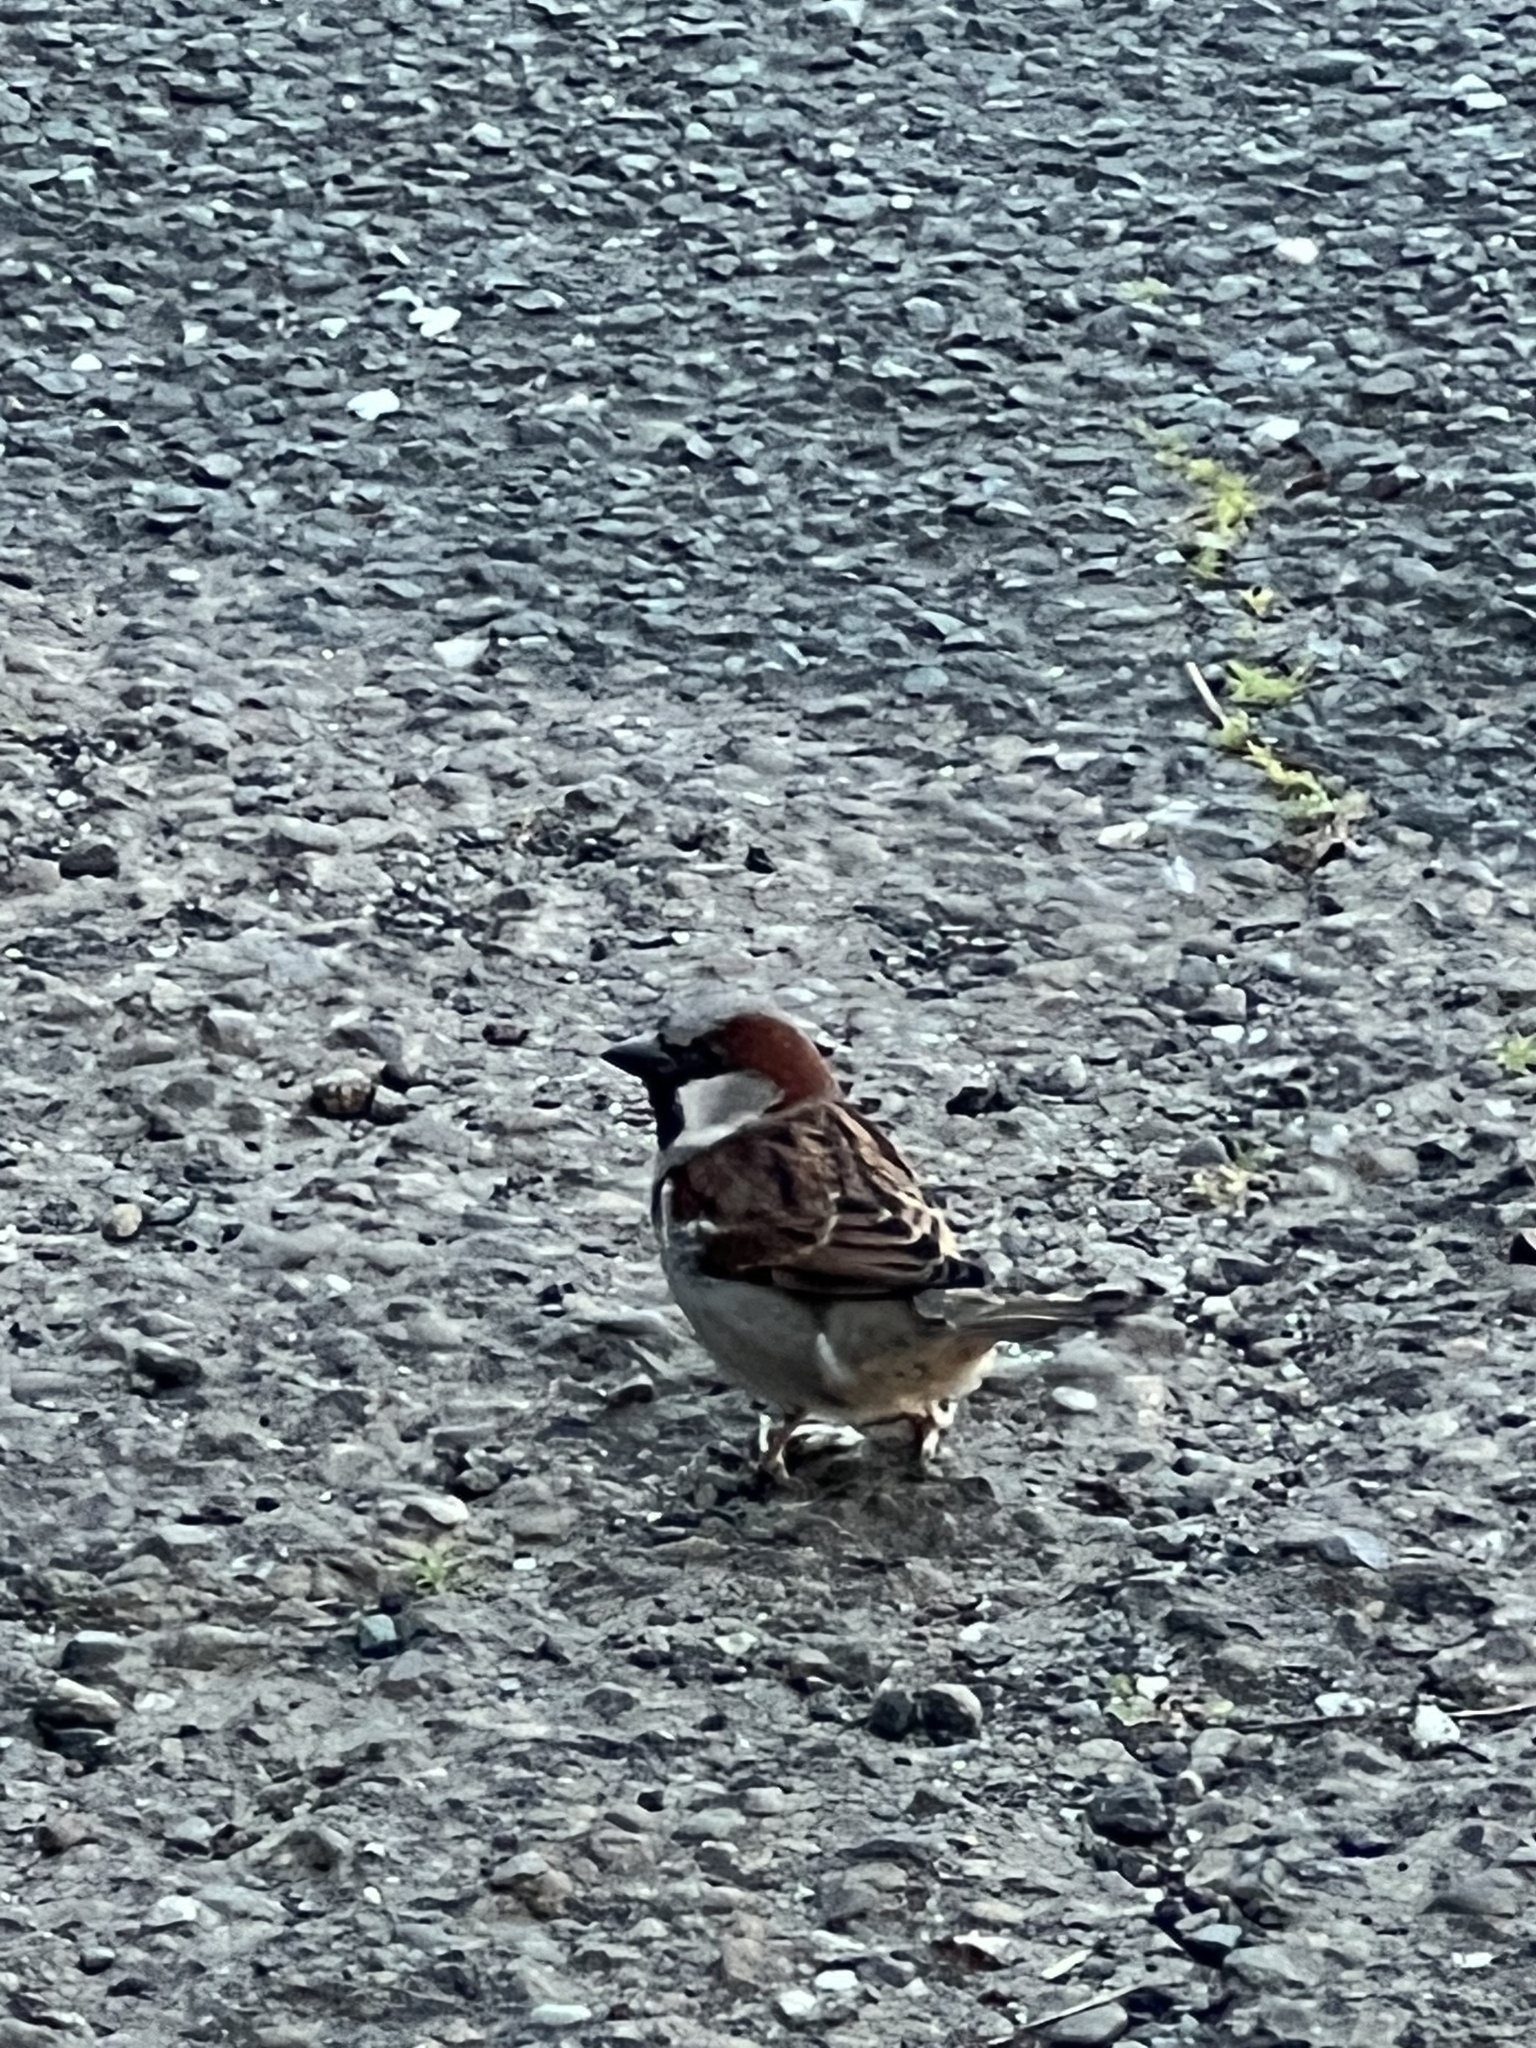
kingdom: Animalia
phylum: Chordata
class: Aves
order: Passeriformes
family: Passeridae
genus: Passer
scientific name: Passer domesticus
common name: House sparrow
